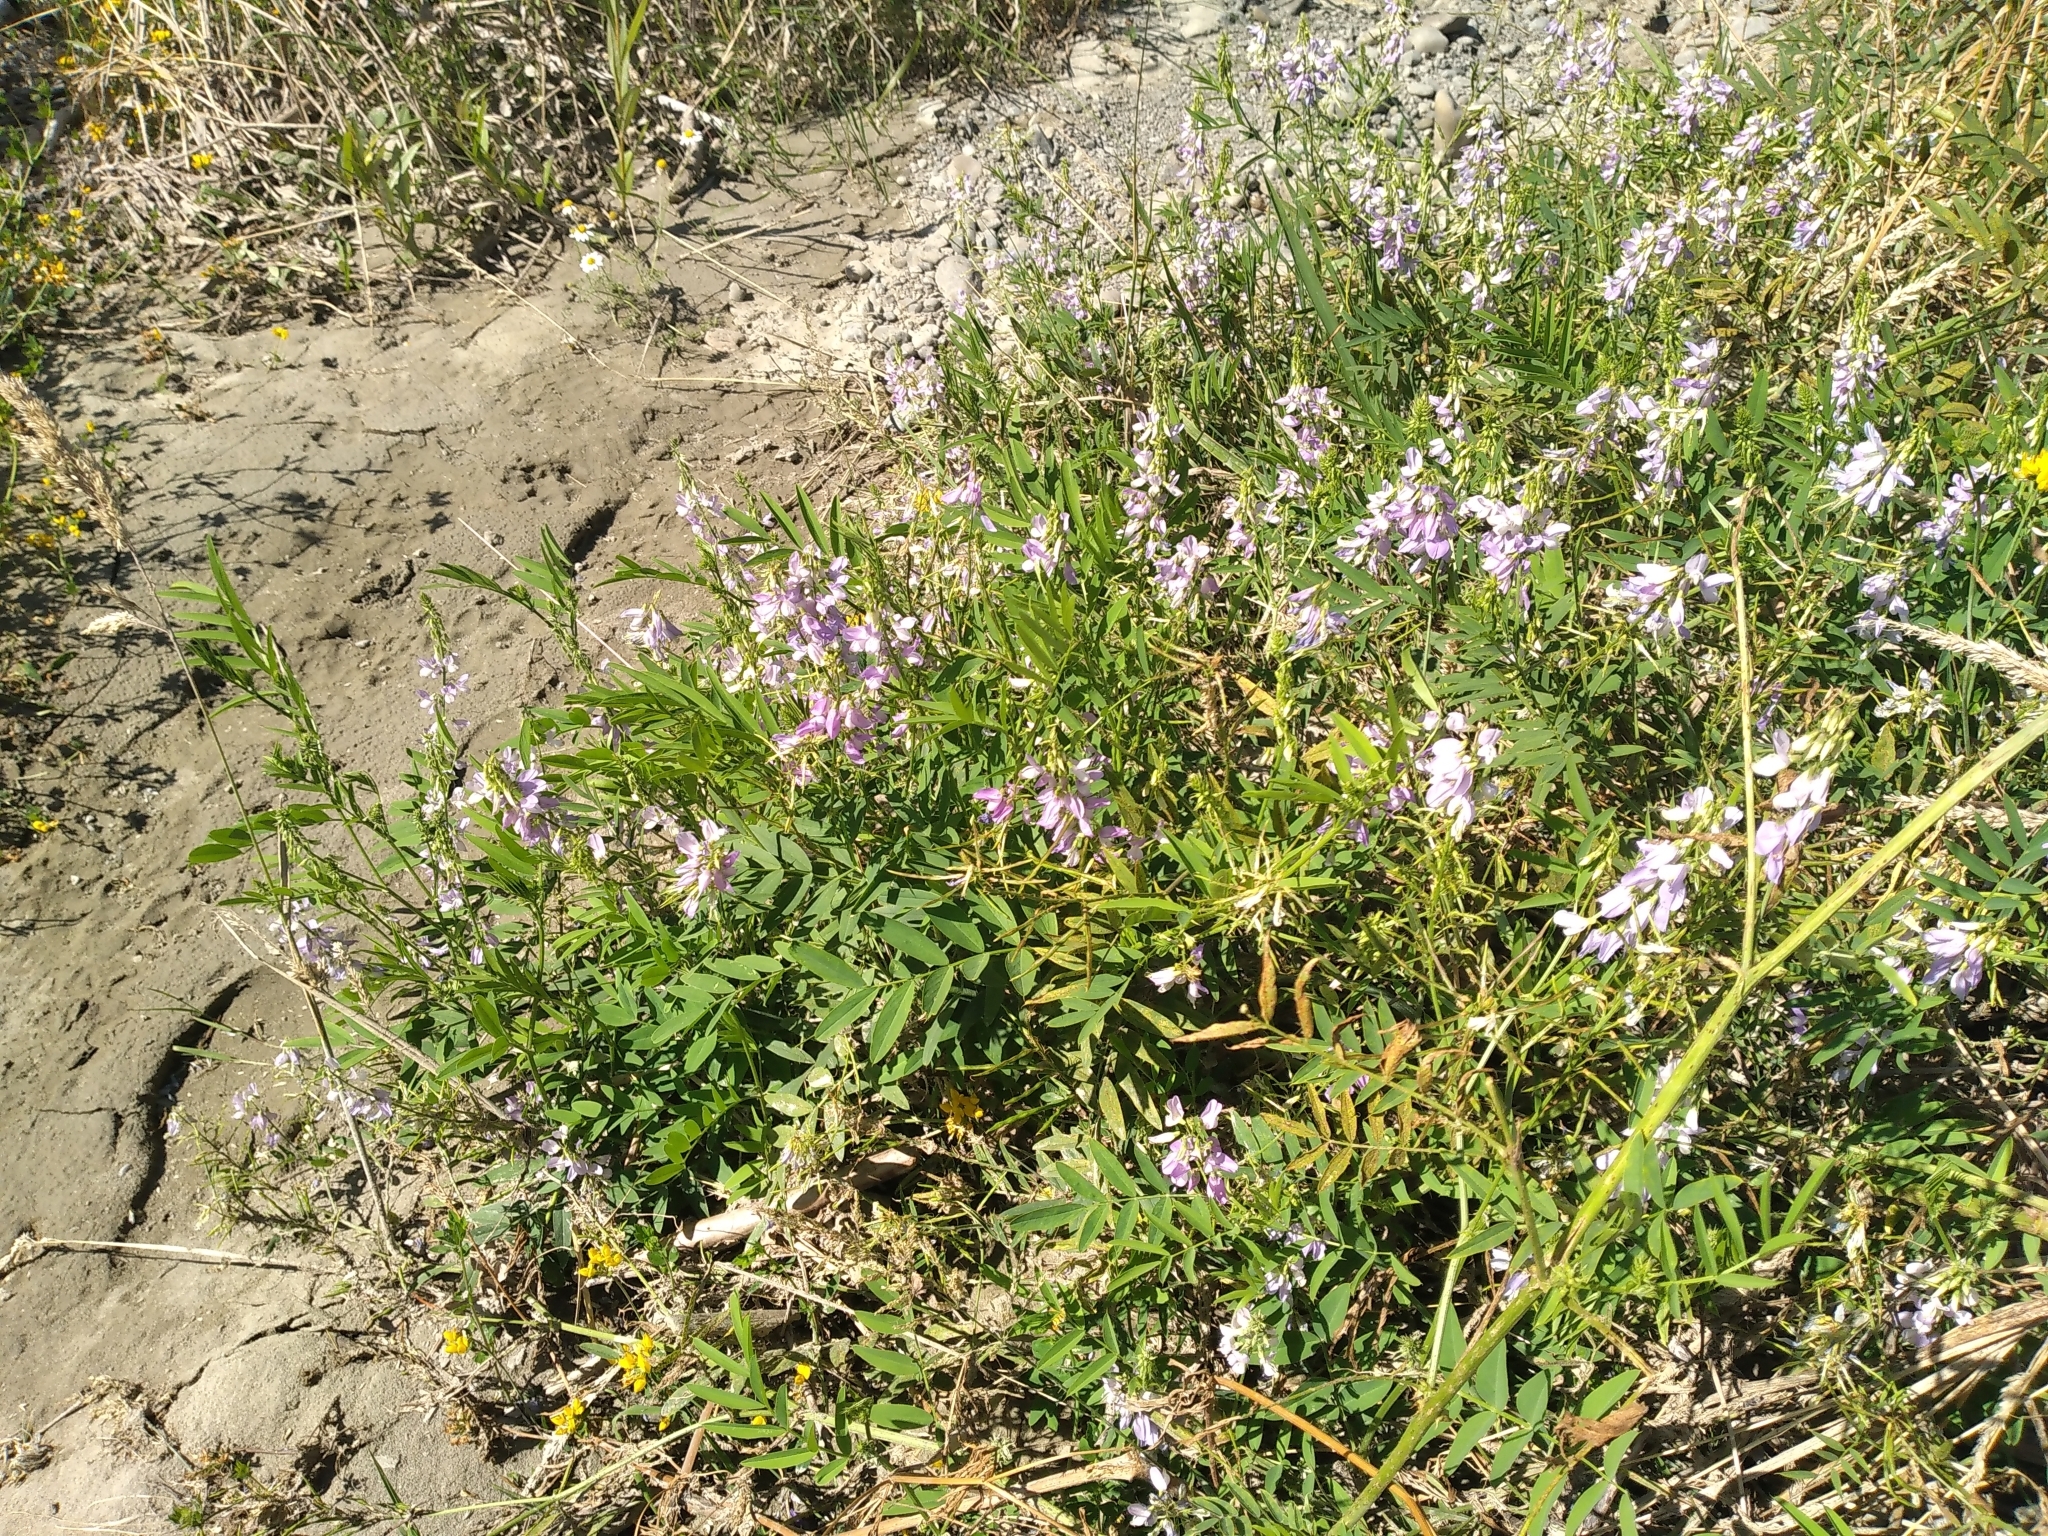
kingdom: Plantae
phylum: Tracheophyta
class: Magnoliopsida
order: Fabales
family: Fabaceae
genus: Galega
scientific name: Galega officinalis
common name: Goat's-rue
